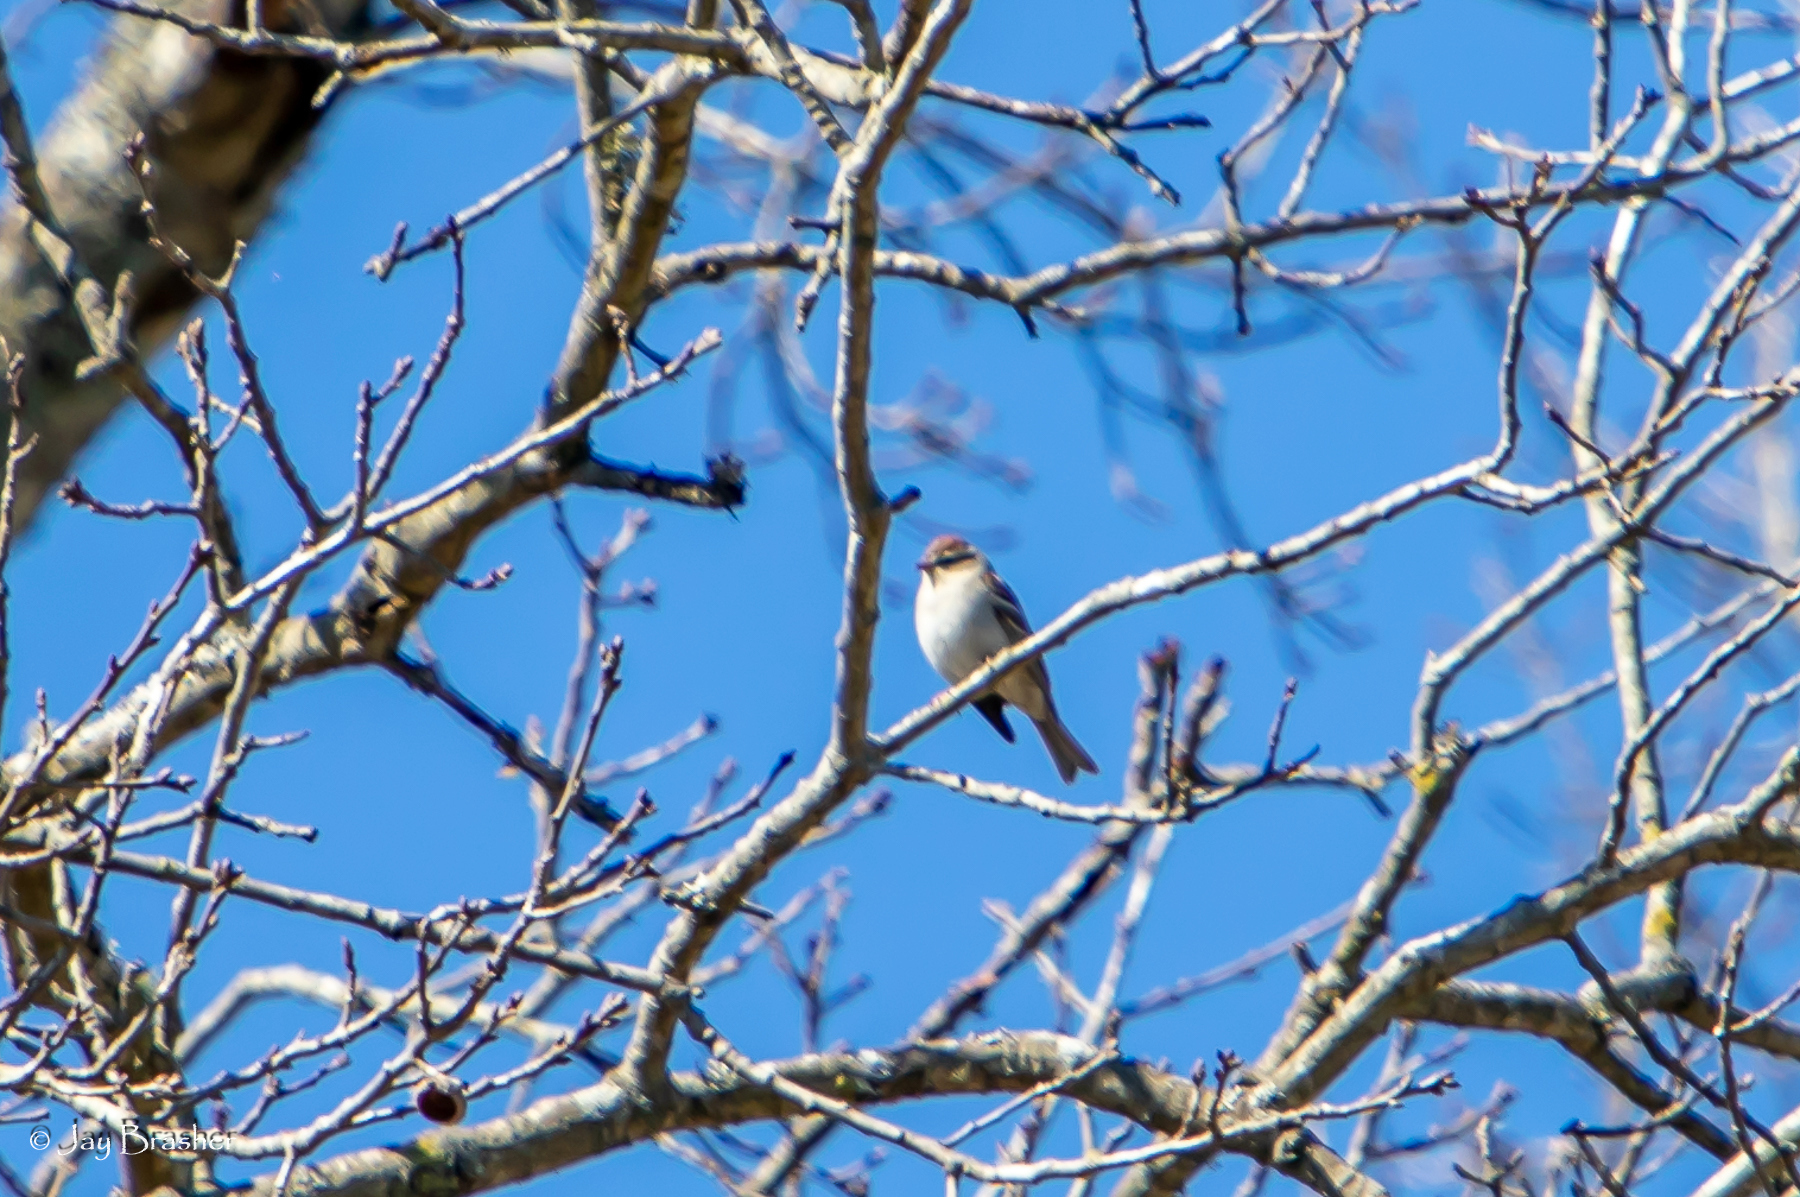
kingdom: Animalia
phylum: Chordata
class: Aves
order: Passeriformes
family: Passerellidae
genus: Spizella
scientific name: Spizella passerina
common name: Chipping sparrow
